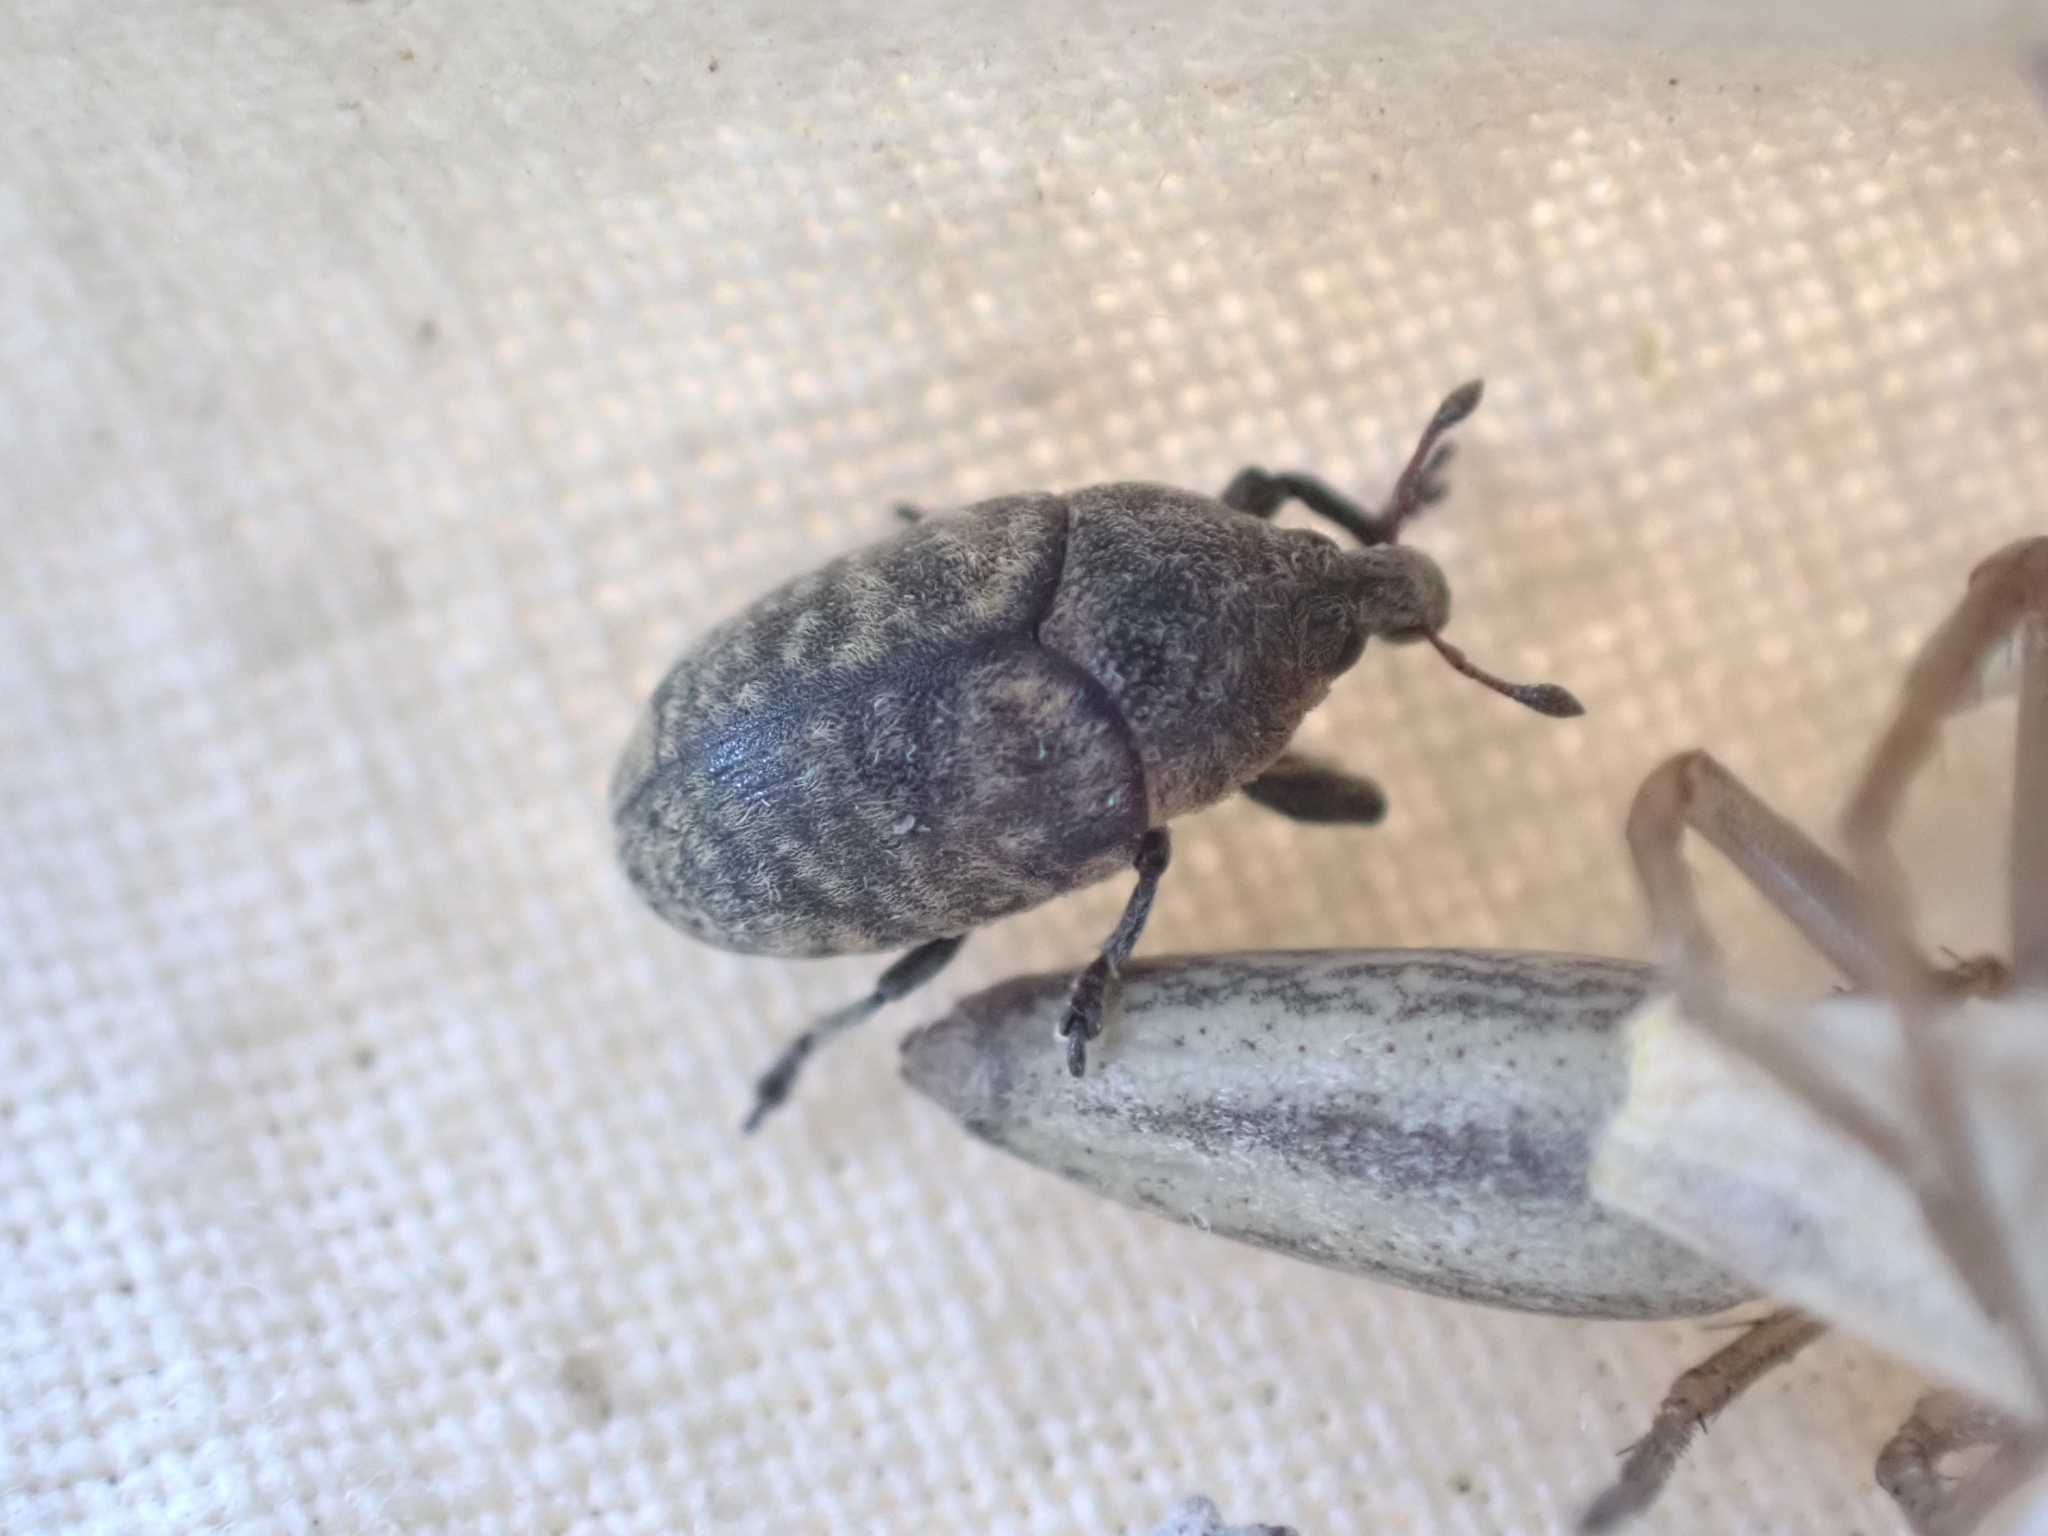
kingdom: Animalia
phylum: Arthropoda
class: Insecta
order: Coleoptera
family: Curculionidae
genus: Larinus
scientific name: Larinus minutus
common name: Weevil
